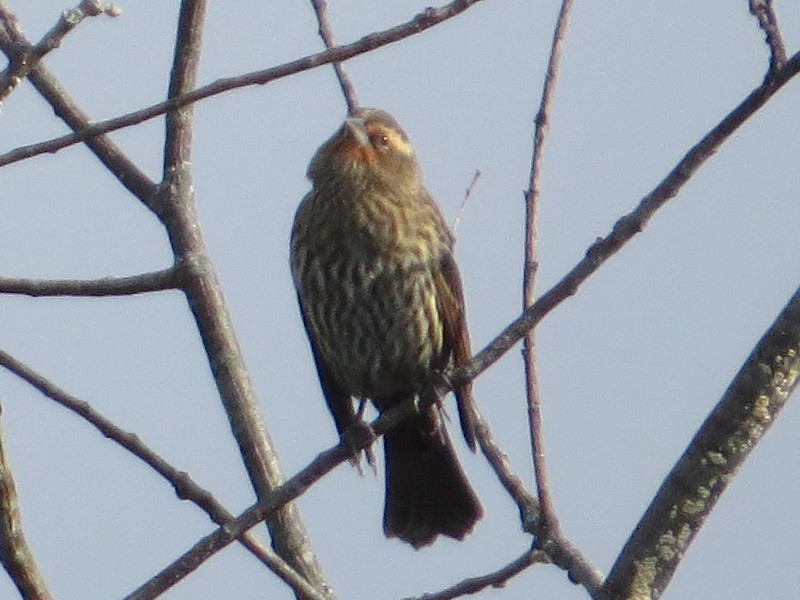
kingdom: Animalia
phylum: Chordata
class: Aves
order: Passeriformes
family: Icteridae
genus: Agelaius
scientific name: Agelaius phoeniceus
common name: Red-winged blackbird
